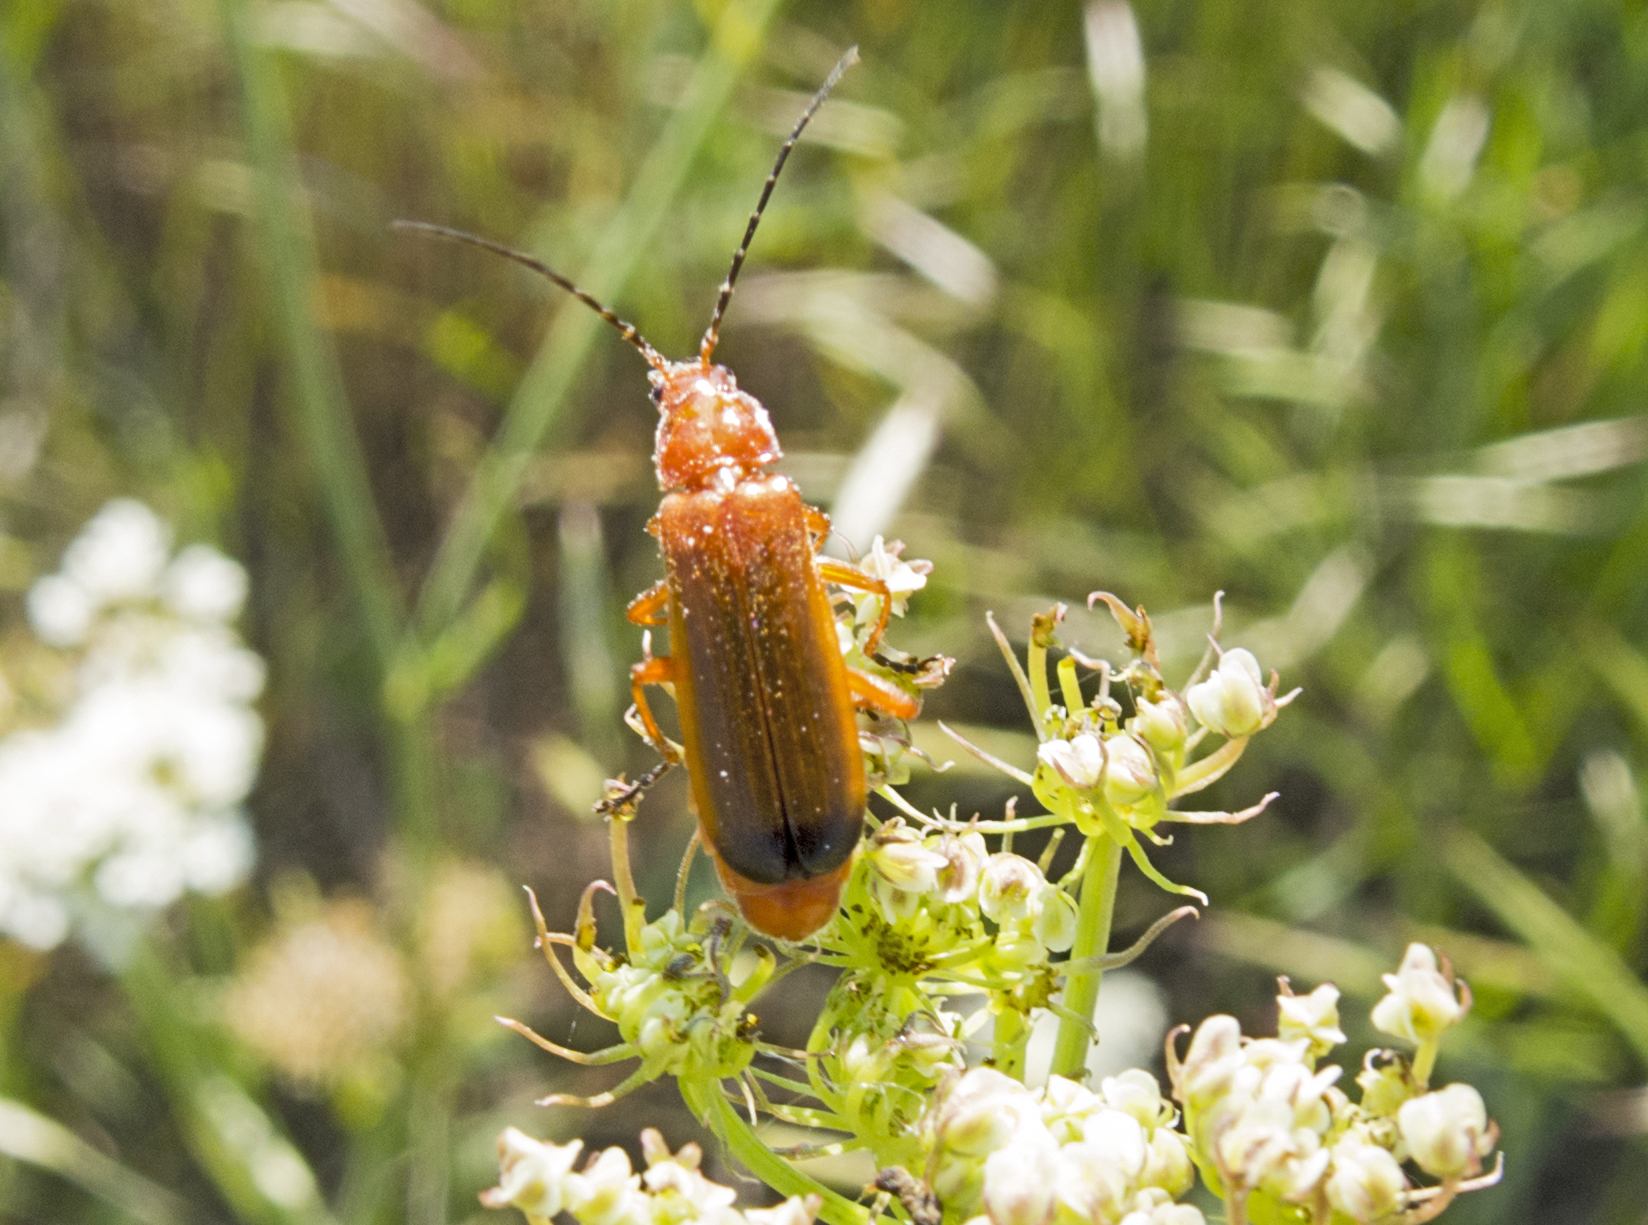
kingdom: Animalia
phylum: Arthropoda
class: Insecta
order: Coleoptera
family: Cantharidae
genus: Rhagonycha
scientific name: Rhagonycha fulva
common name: Common red soldier beetle
